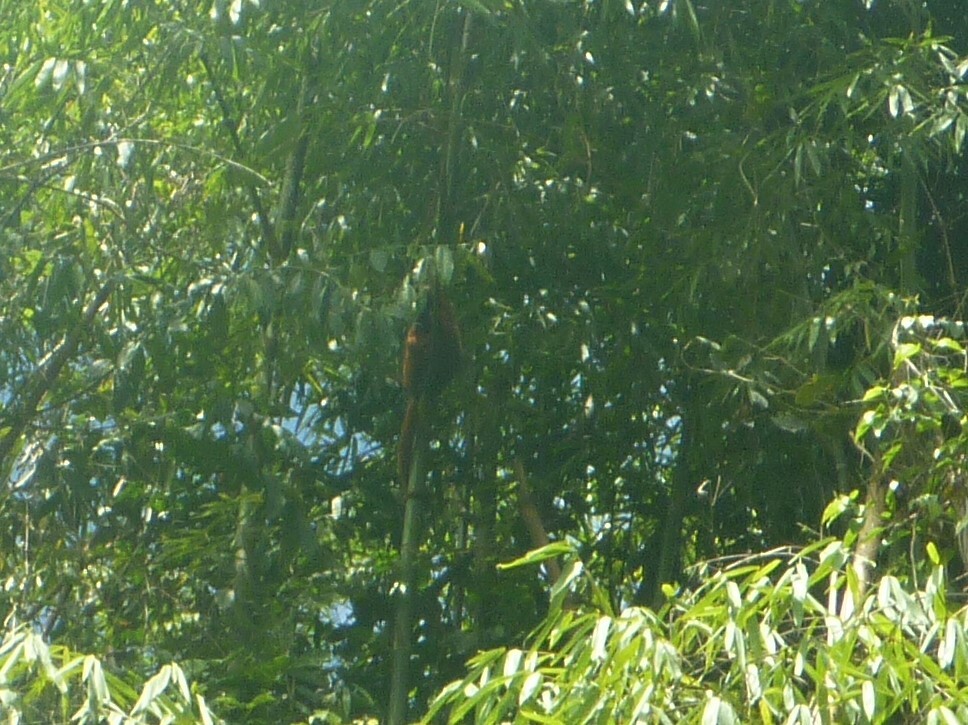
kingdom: Animalia
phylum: Chordata
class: Mammalia
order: Primates
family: Atelidae
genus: Alouatta
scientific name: Alouatta seniculus
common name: Venezuelan red howler
